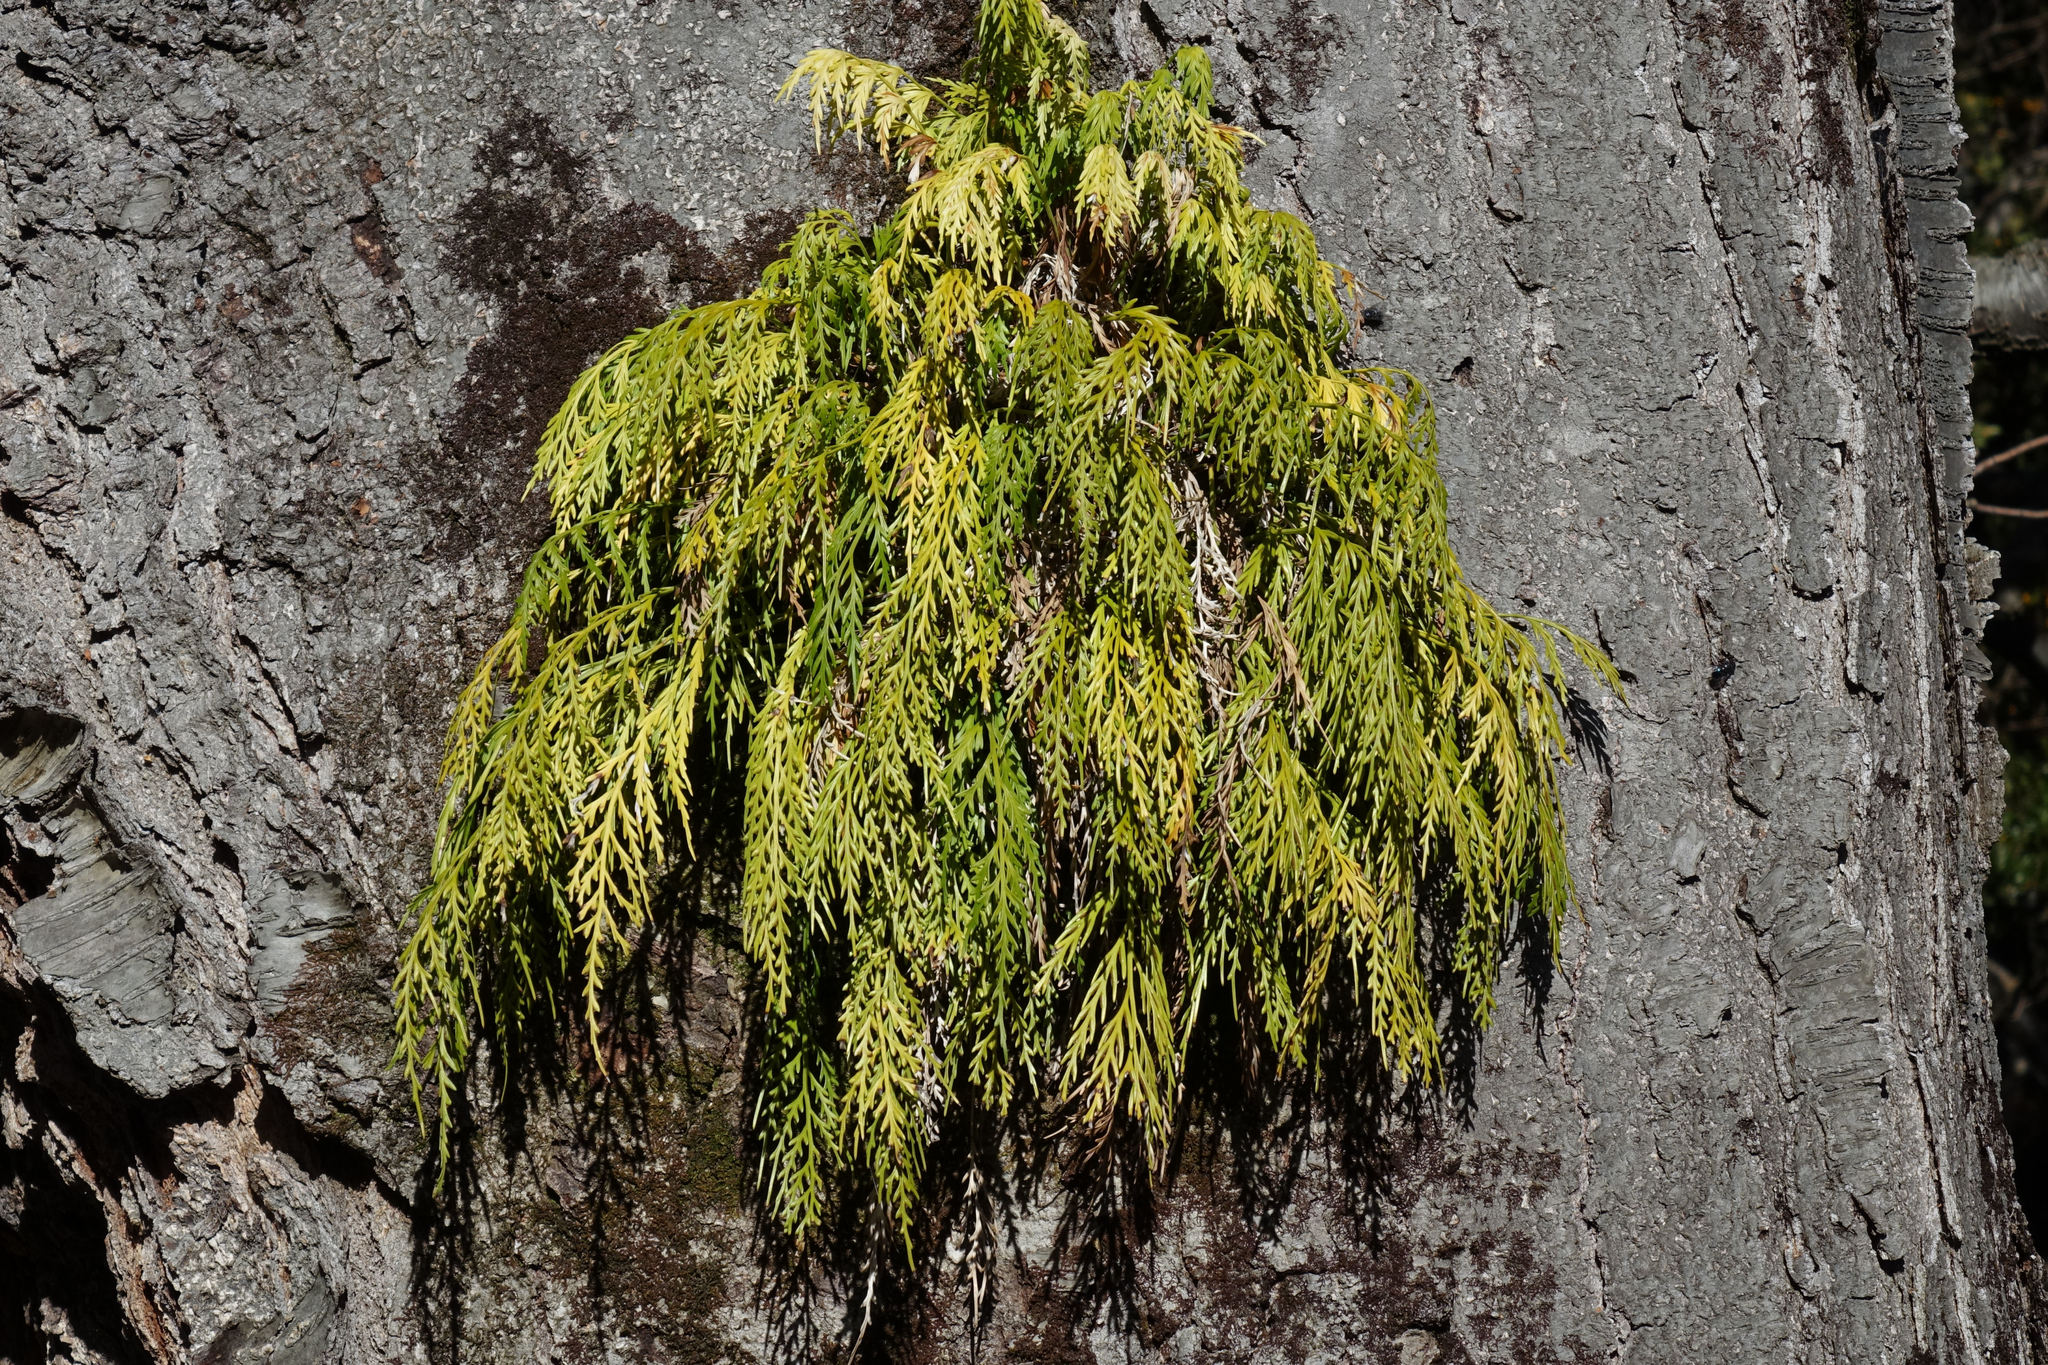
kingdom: Plantae
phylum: Tracheophyta
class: Polypodiopsida
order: Polypodiales
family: Aspleniaceae
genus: Asplenium
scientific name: Asplenium flaccidum
